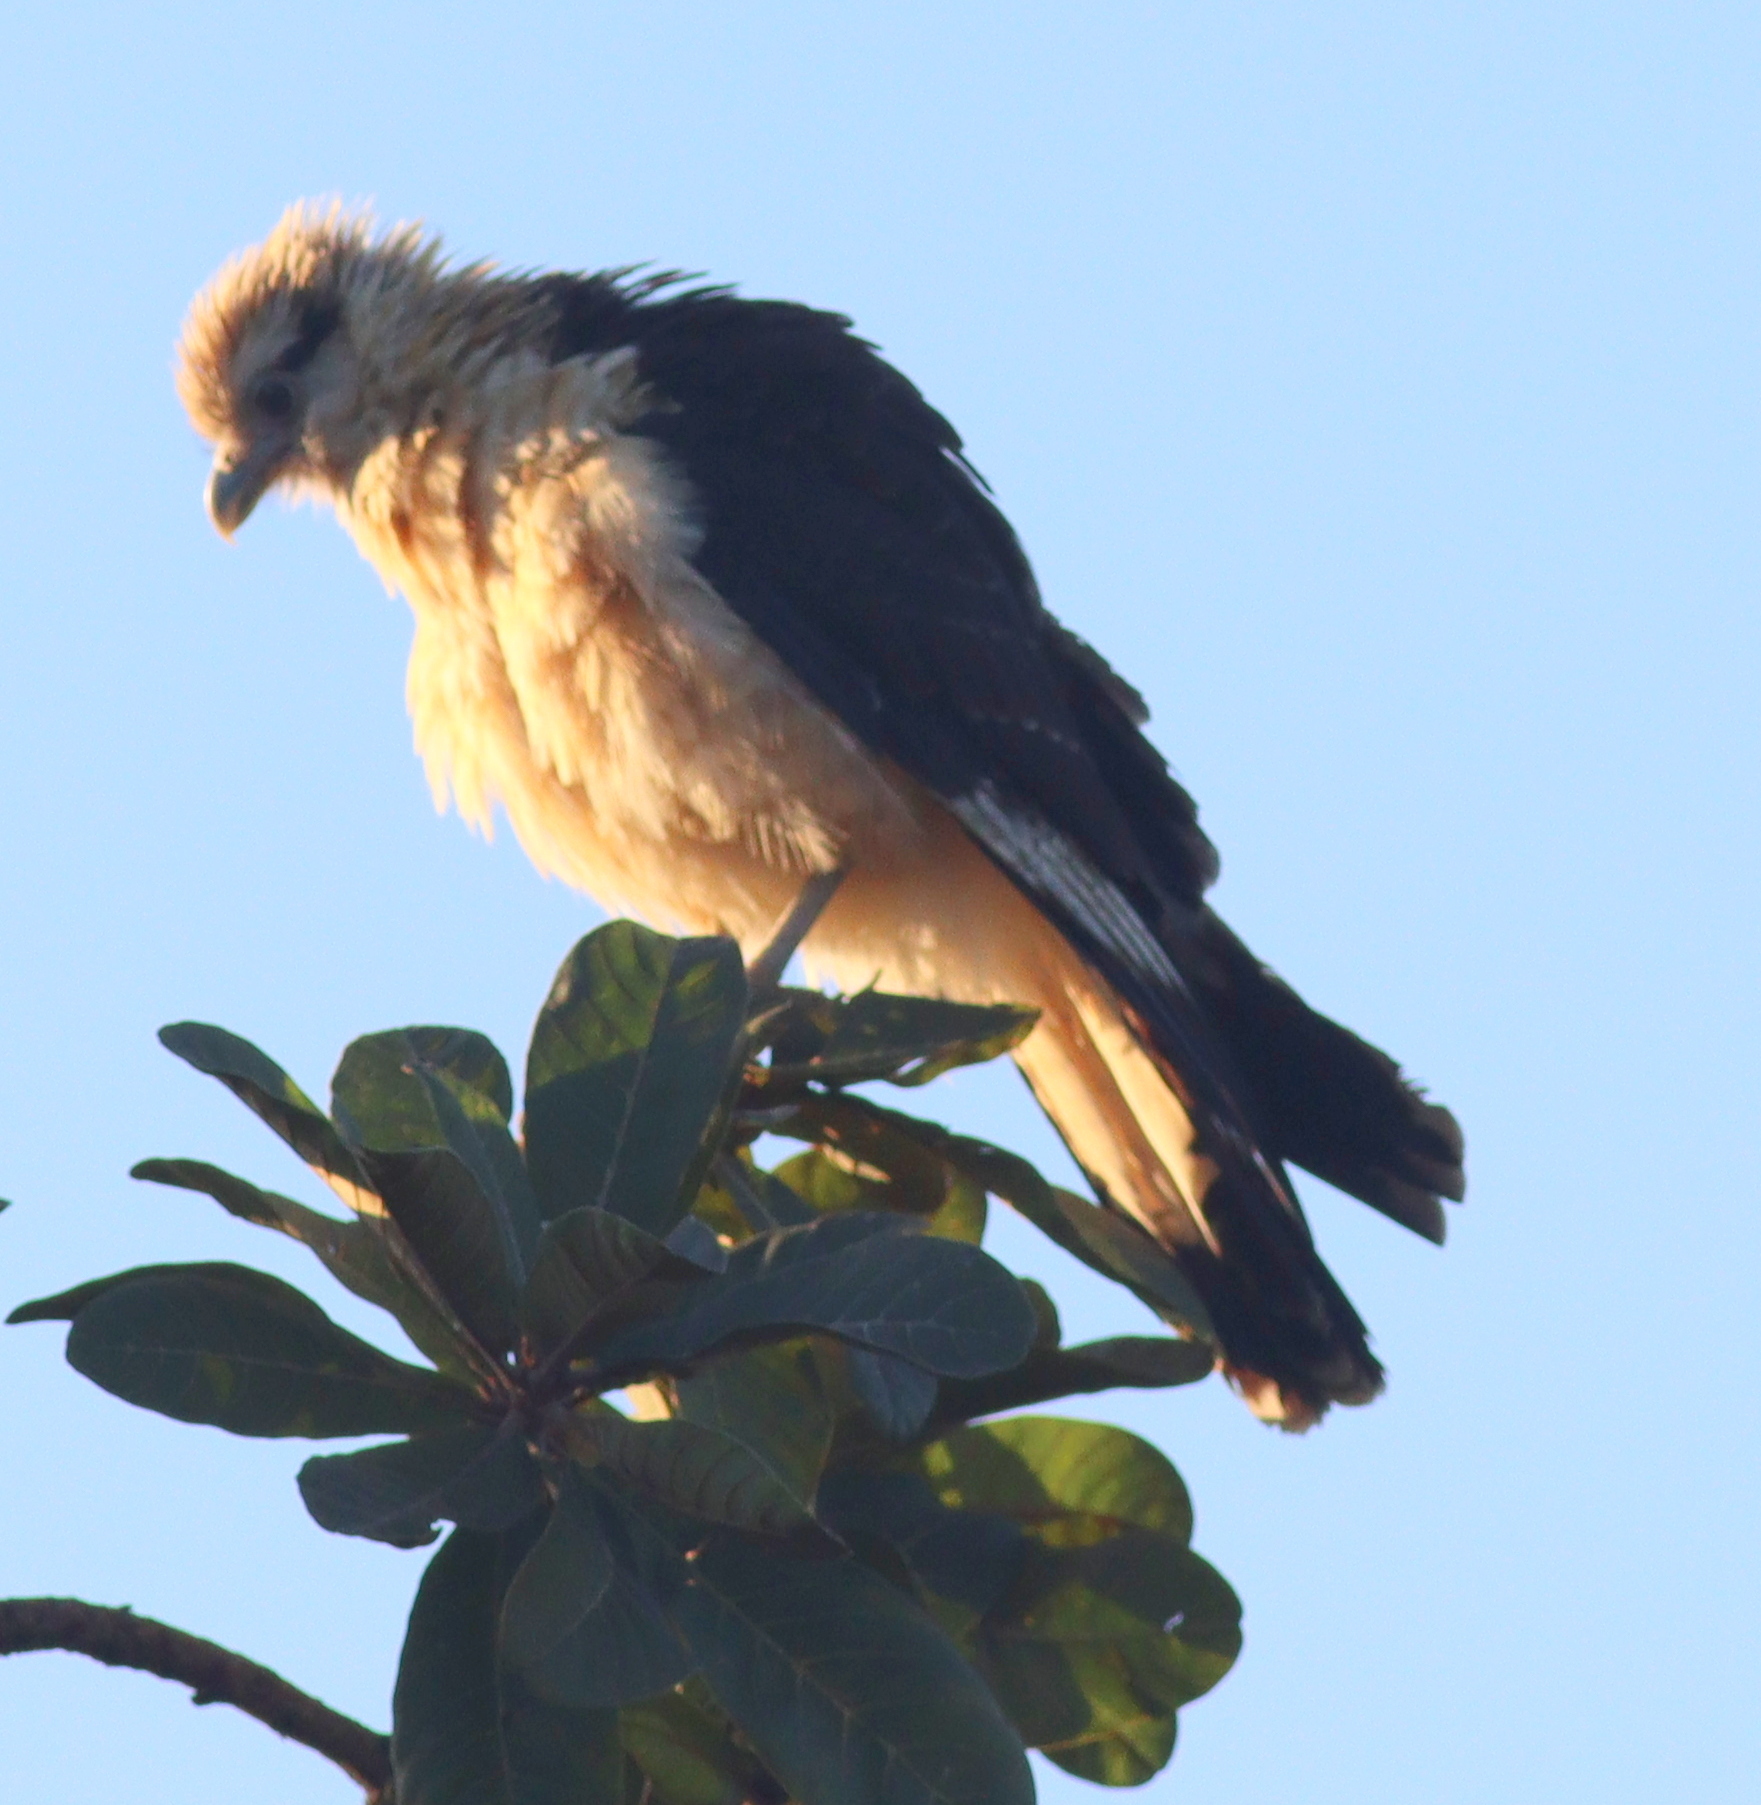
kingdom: Animalia
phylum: Chordata
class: Aves
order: Falconiformes
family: Falconidae
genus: Daptrius
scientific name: Daptrius
